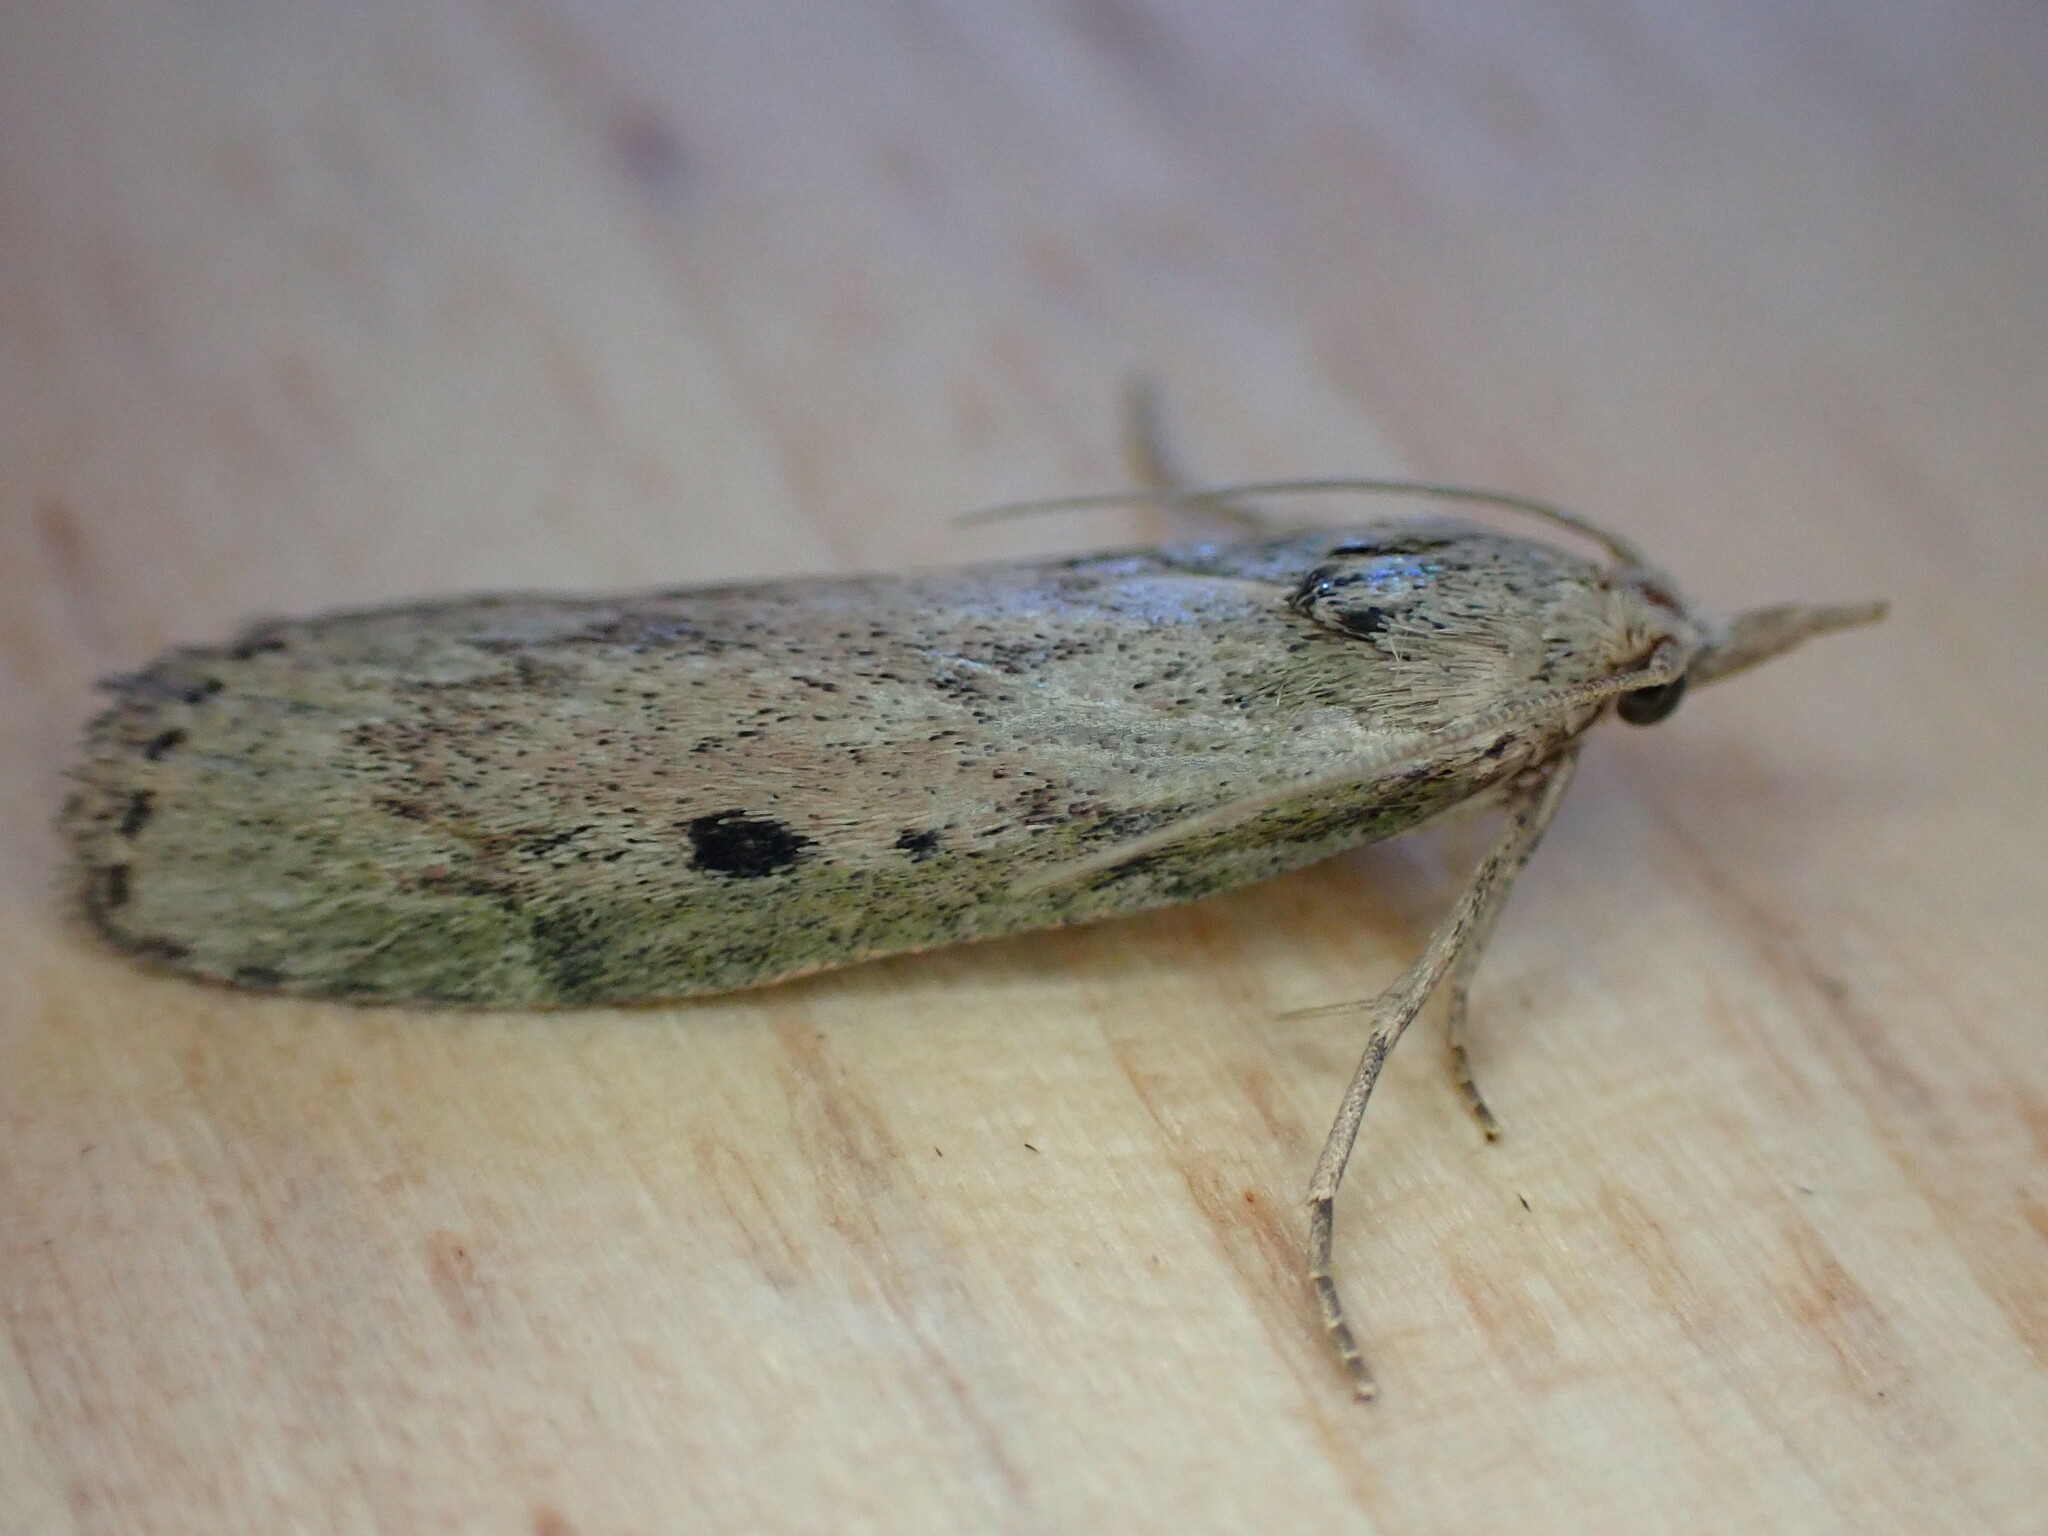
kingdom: Animalia
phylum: Arthropoda
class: Insecta
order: Lepidoptera
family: Pyralidae
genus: Aphomia
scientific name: Aphomia sociella
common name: Bee moth
